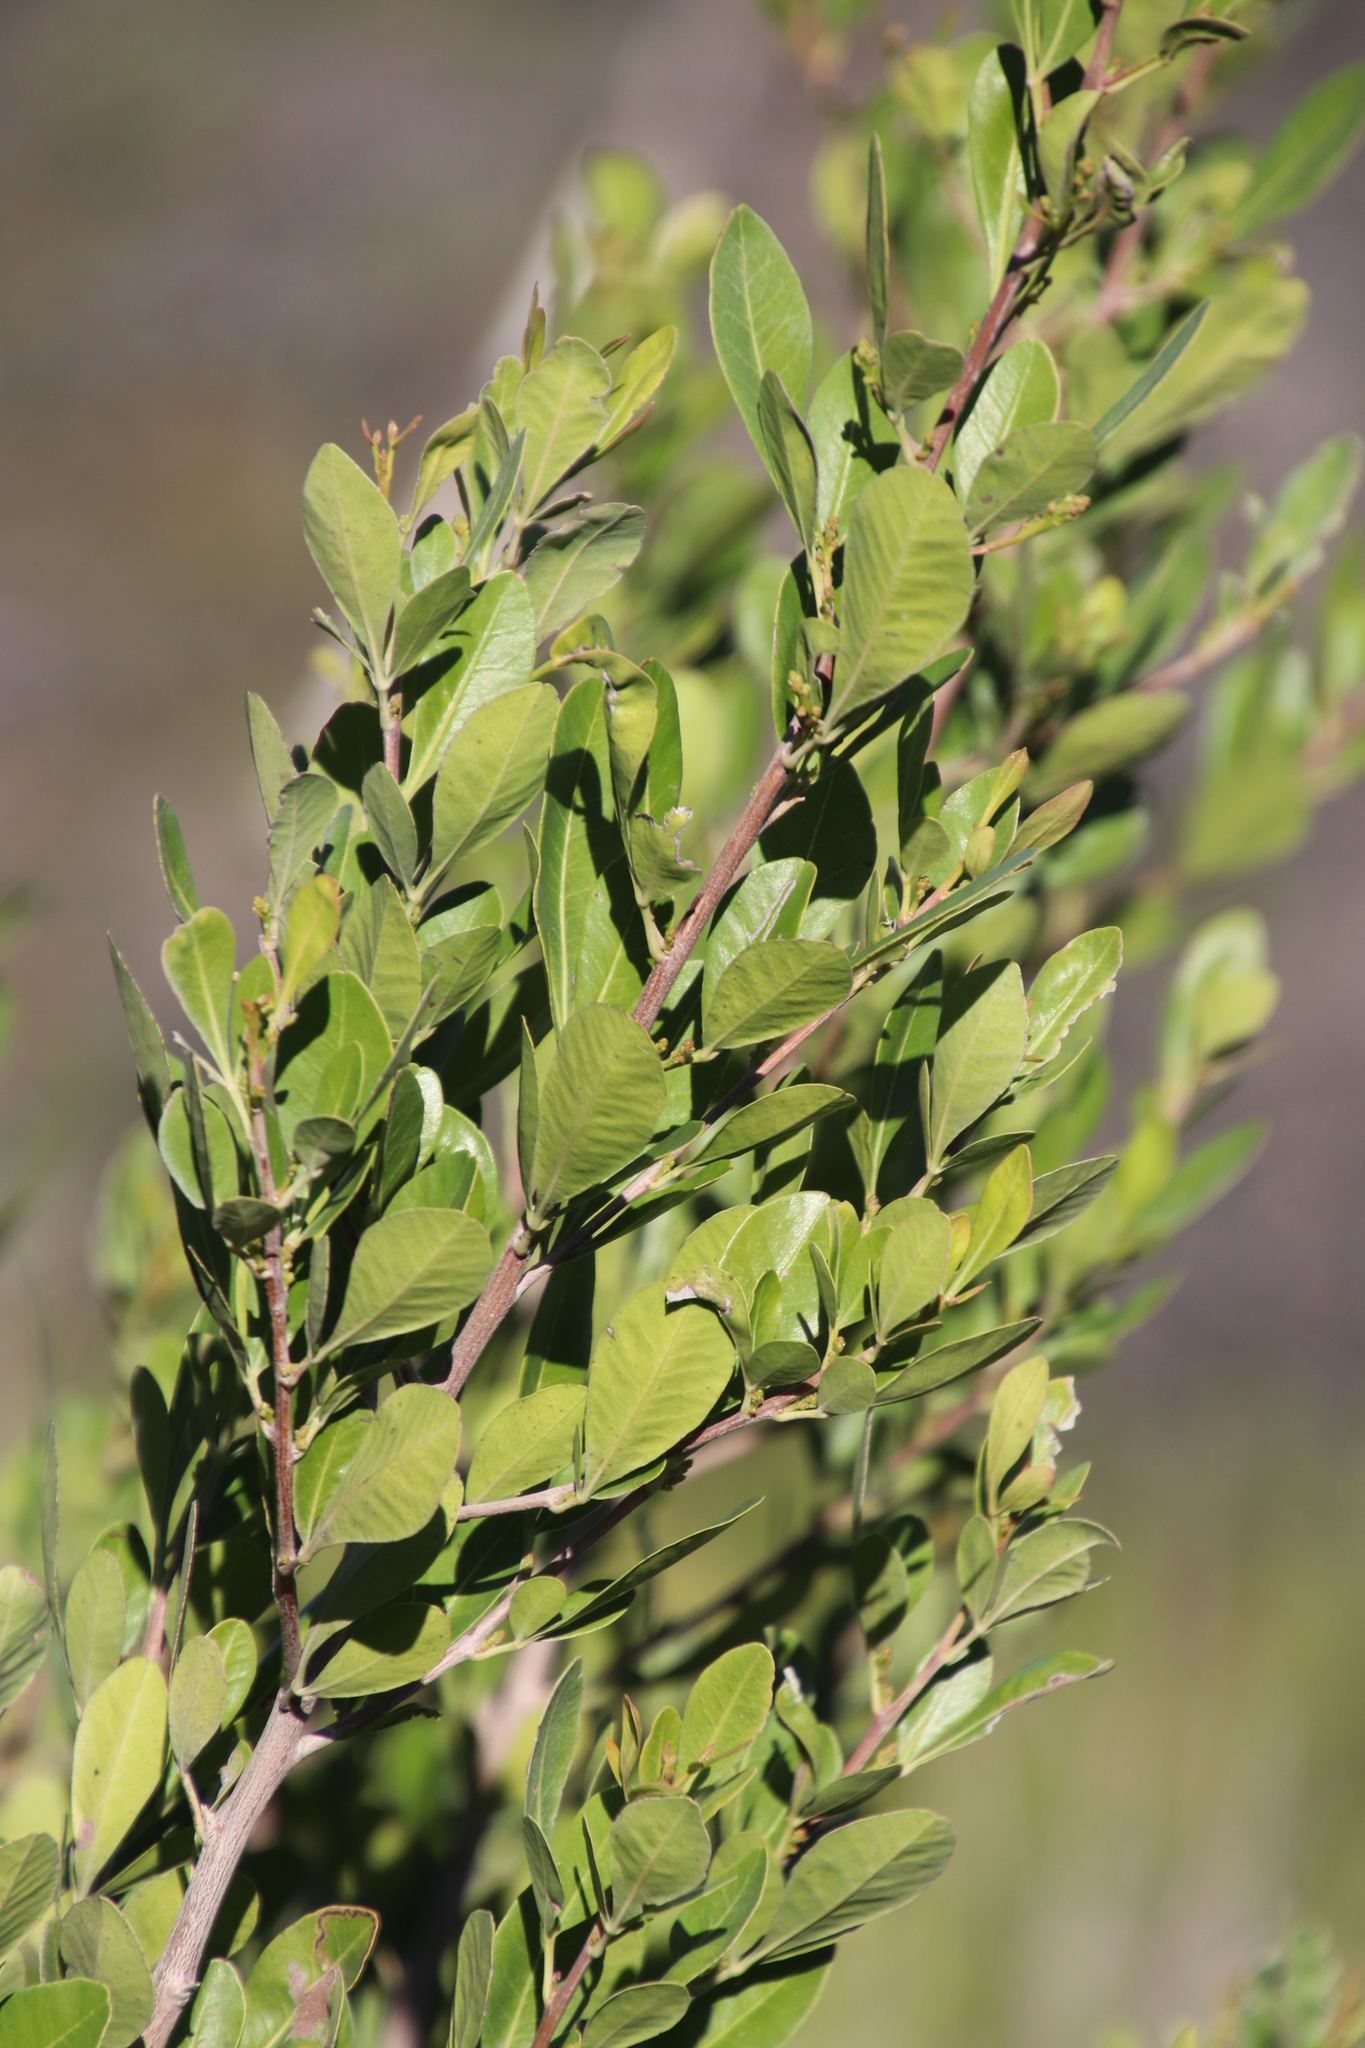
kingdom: Plantae
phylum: Tracheophyta
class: Magnoliopsida
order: Sapindales
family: Anacardiaceae
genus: Searsia
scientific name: Searsia lucida
